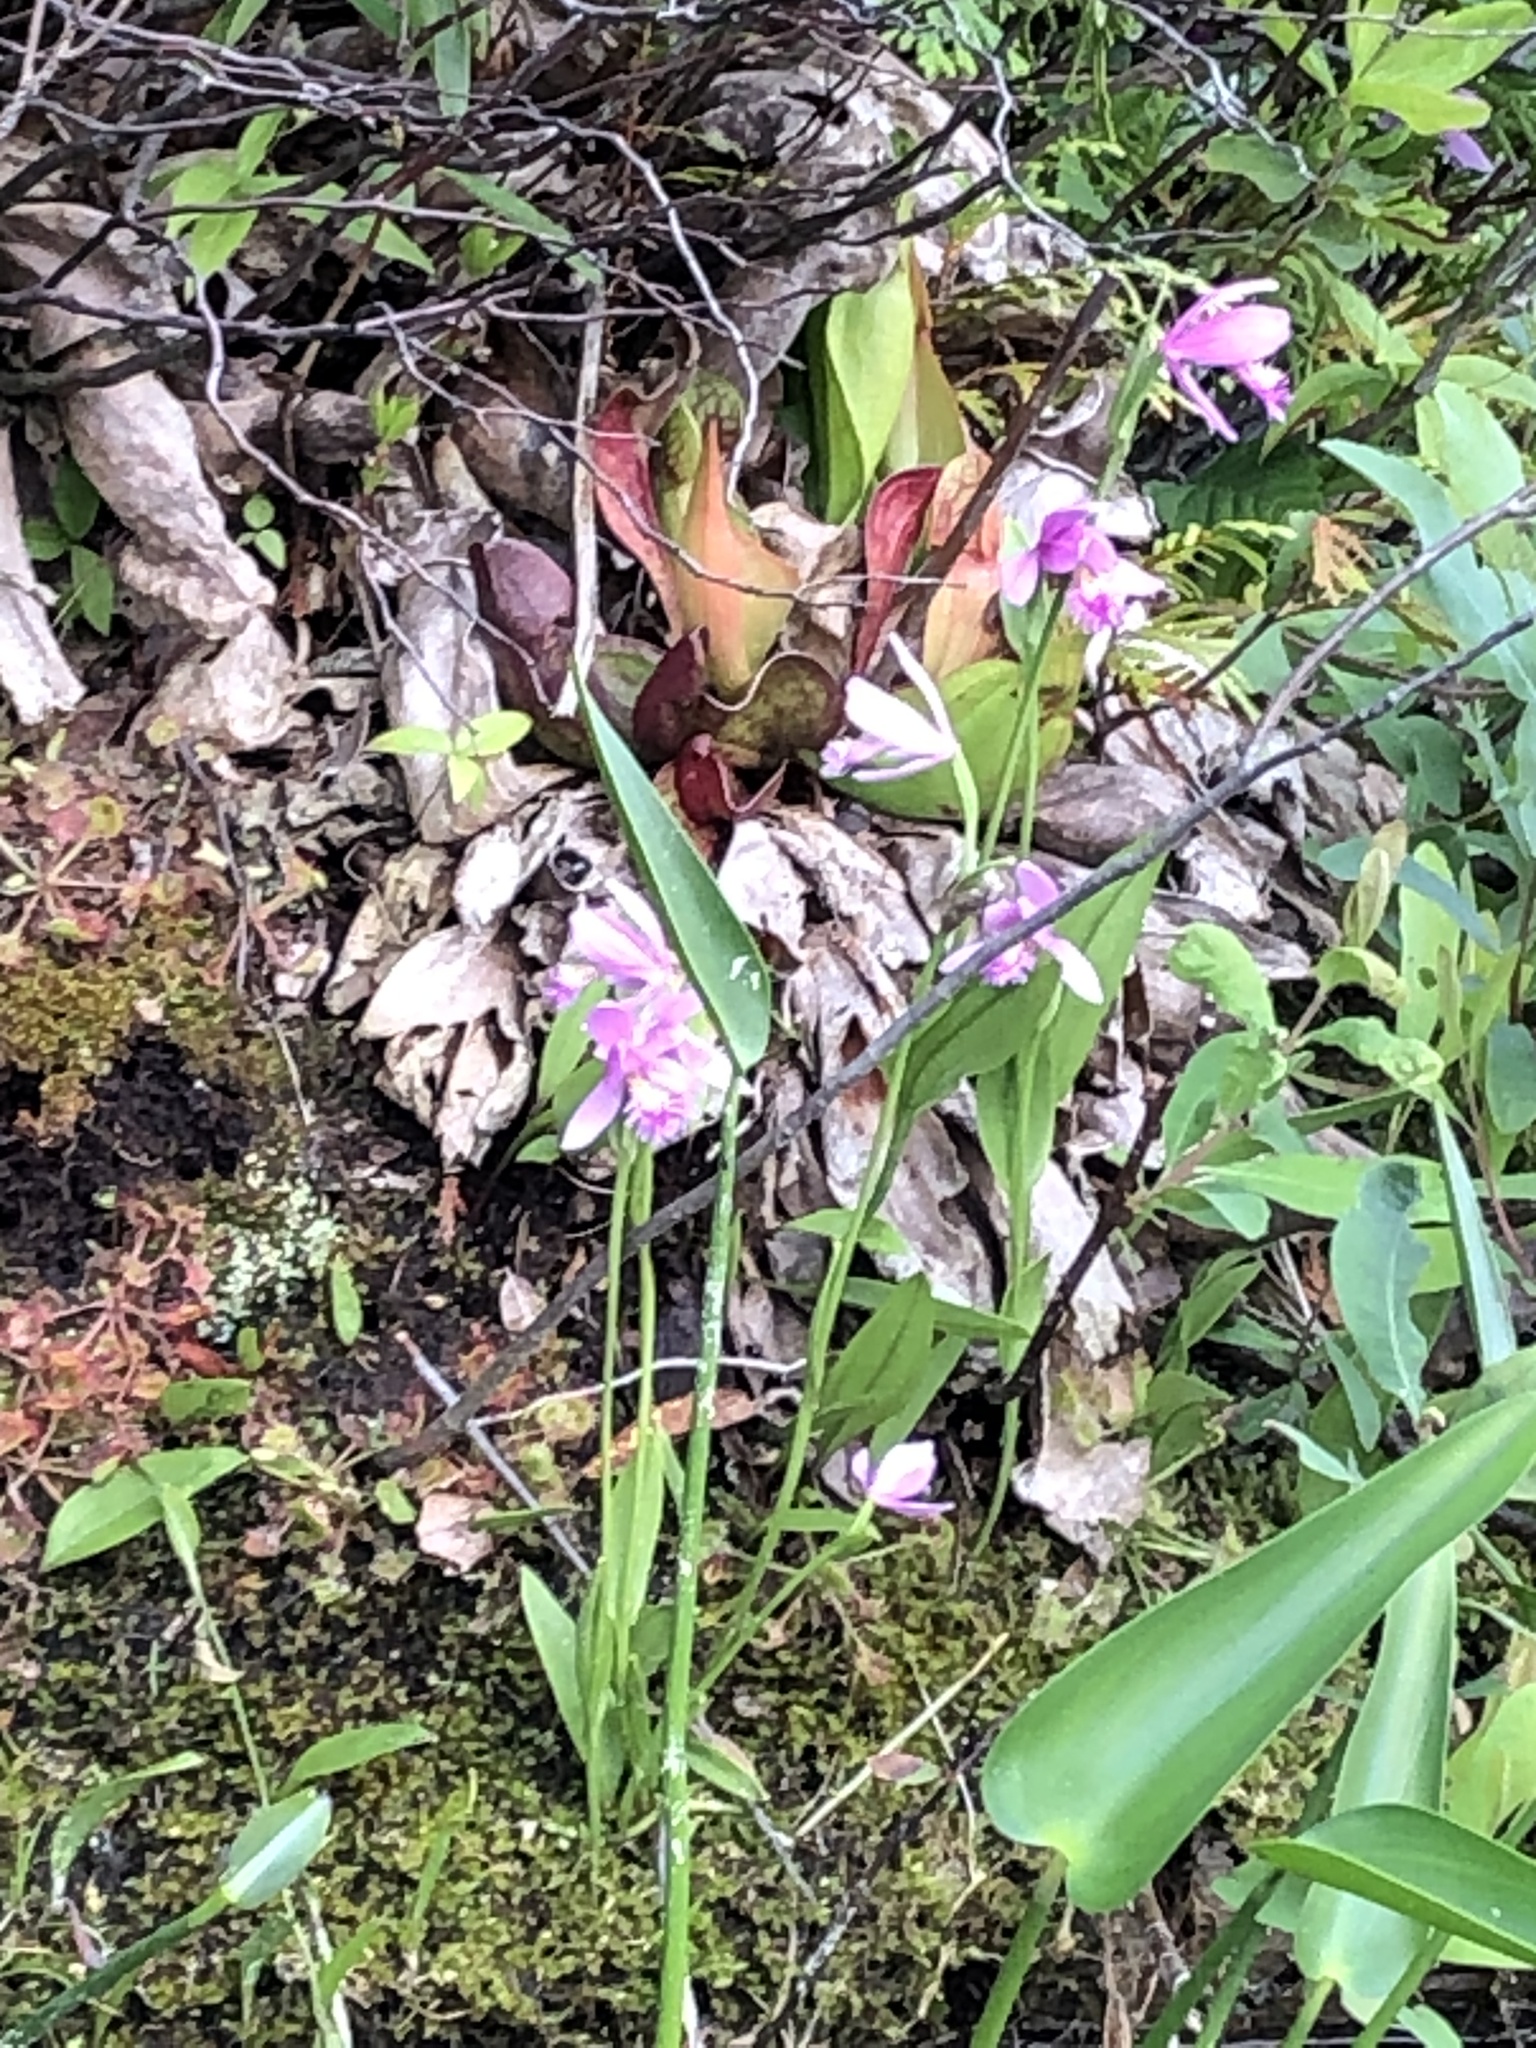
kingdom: Plantae
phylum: Tracheophyta
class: Liliopsida
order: Asparagales
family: Orchidaceae
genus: Pogonia
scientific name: Pogonia ophioglossoides
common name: Rose pogonia
